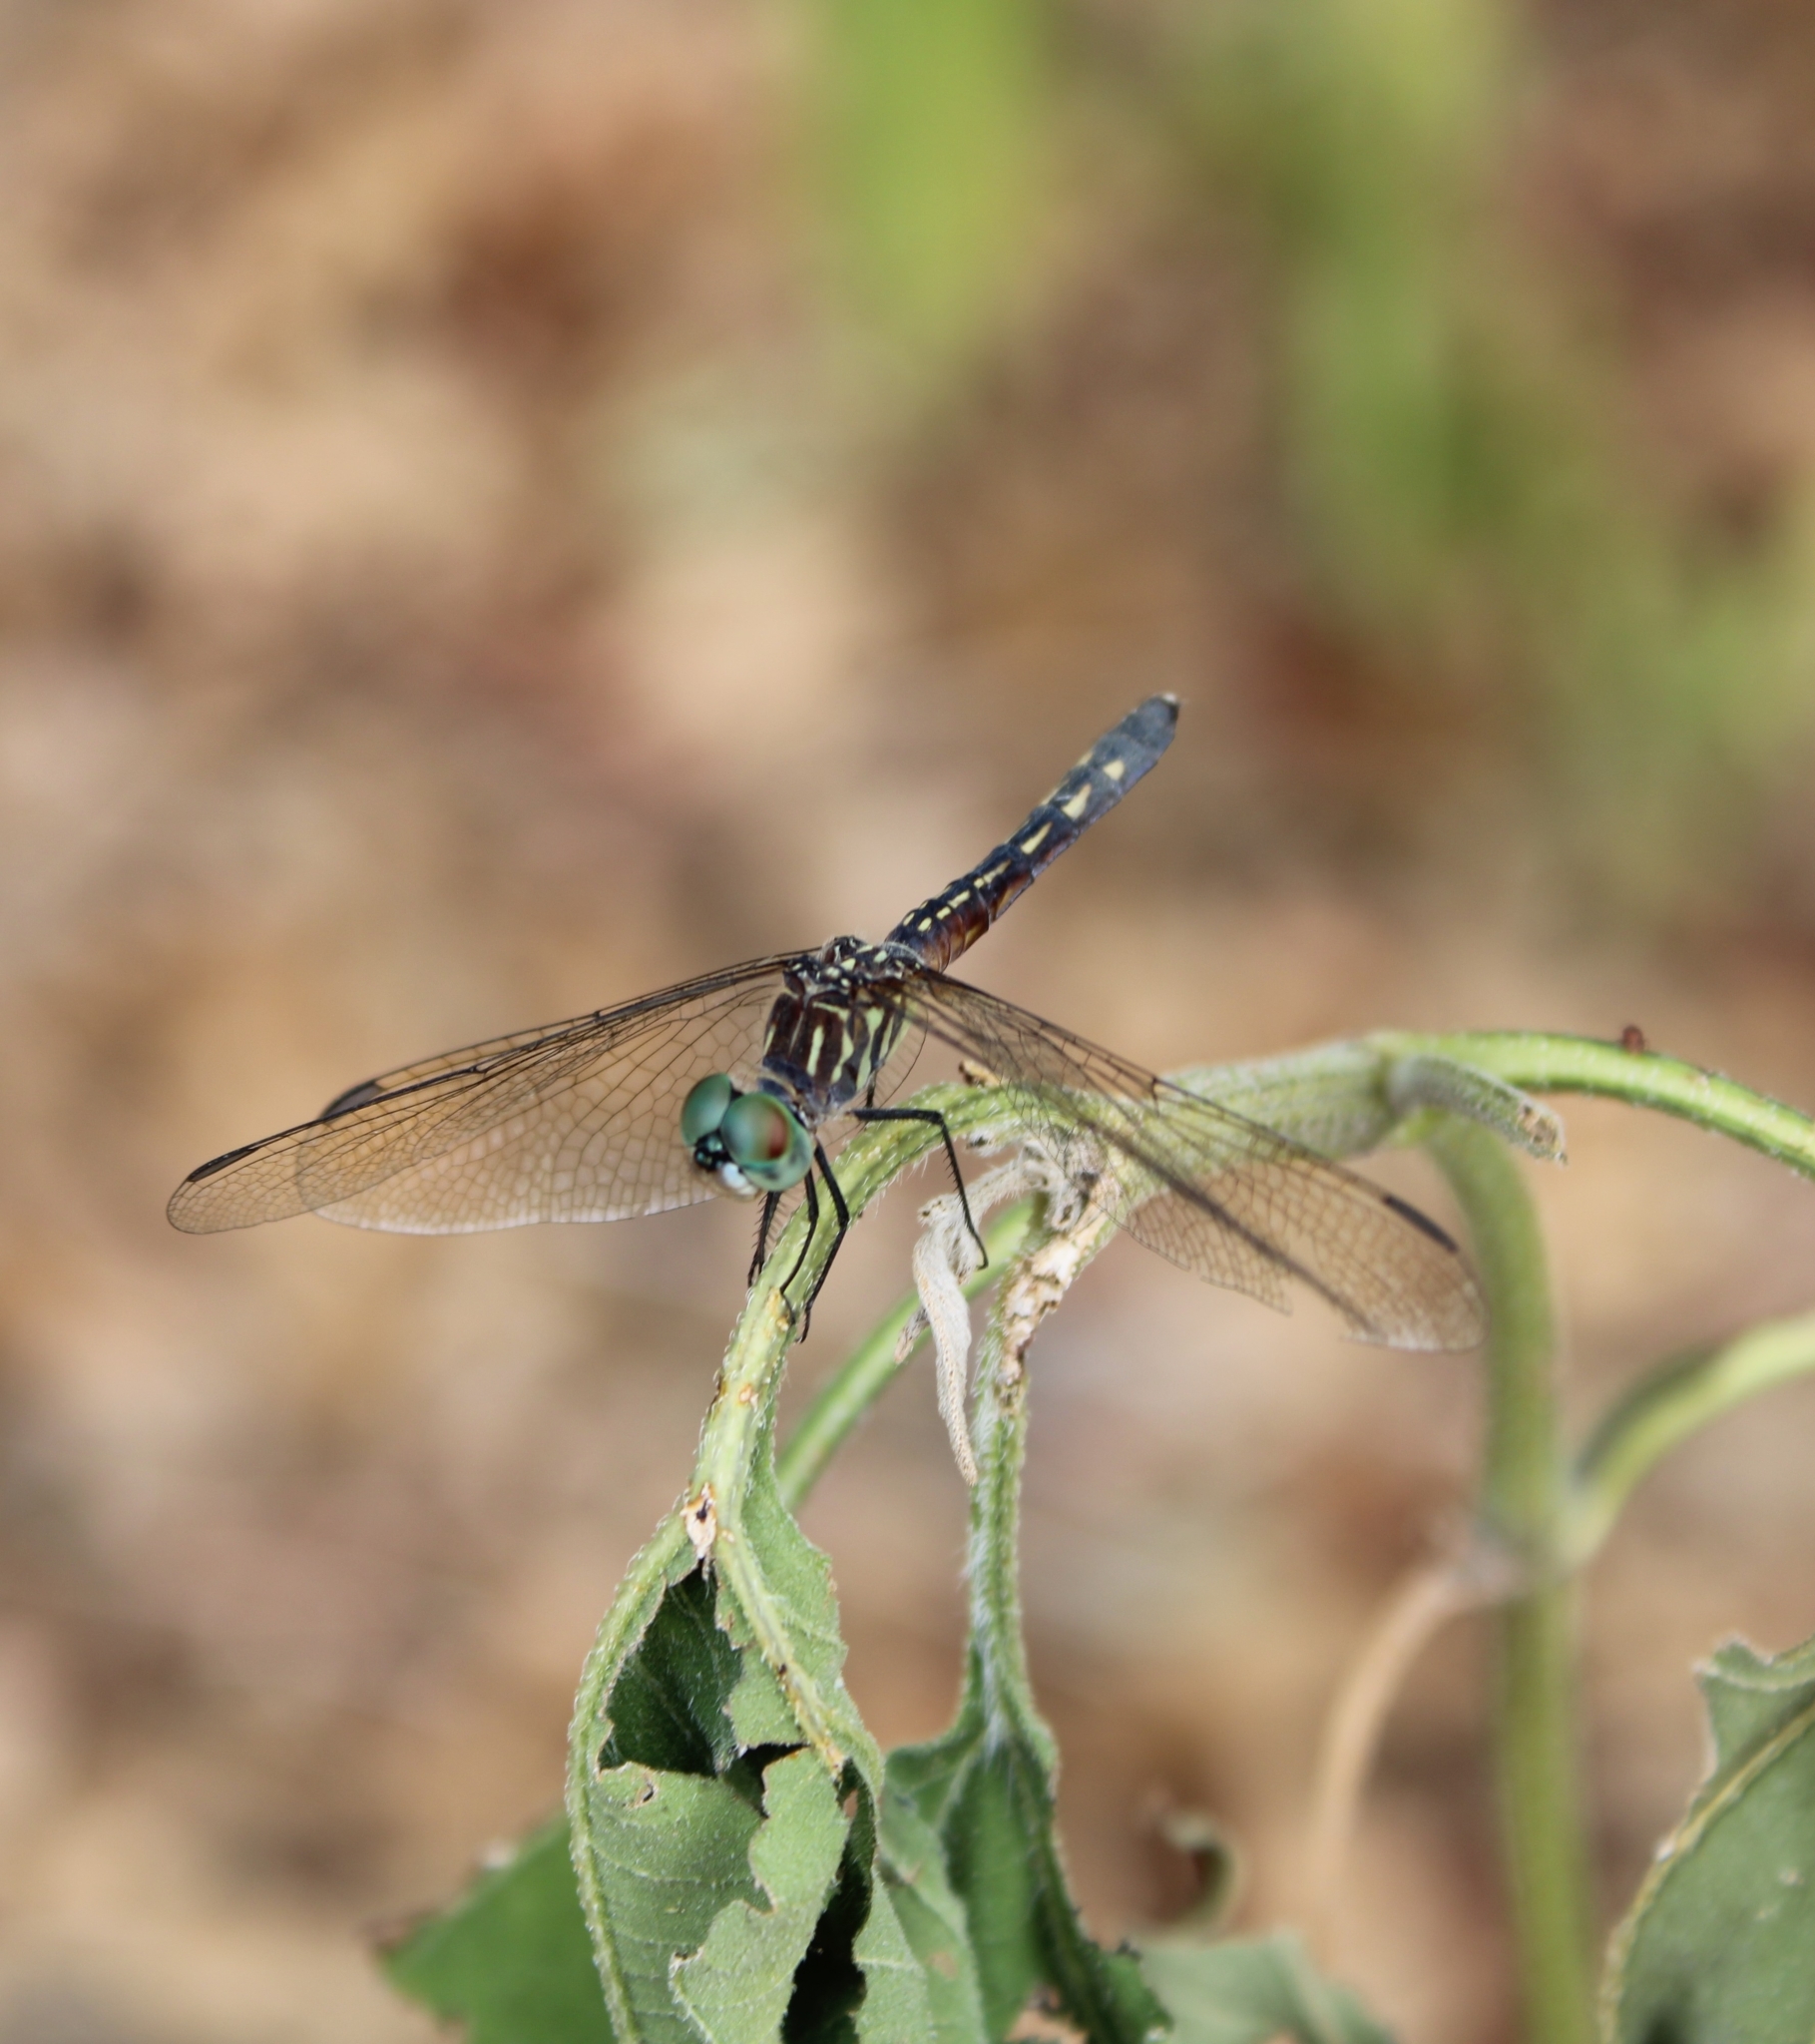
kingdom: Animalia
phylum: Arthropoda
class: Insecta
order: Odonata
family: Libellulidae
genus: Pachydiplax
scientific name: Pachydiplax longipennis
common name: Blue dasher
